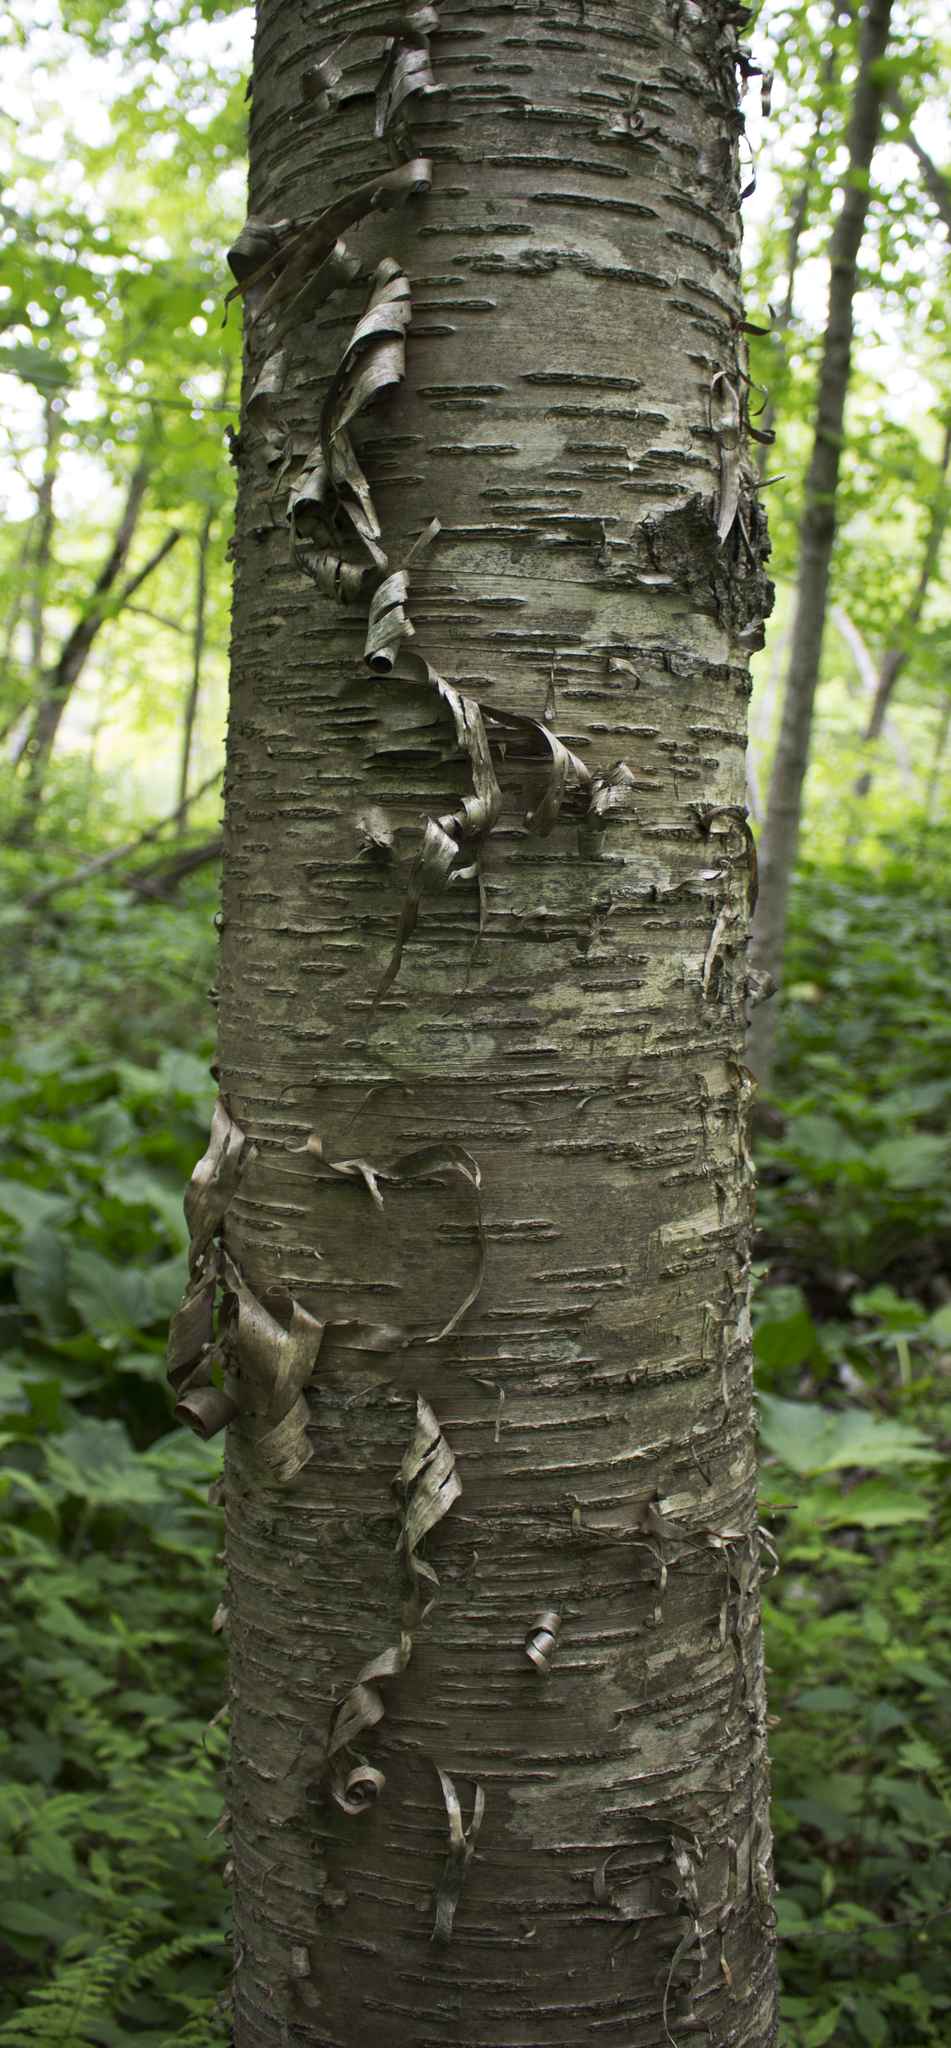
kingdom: Plantae
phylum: Tracheophyta
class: Magnoliopsida
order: Fagales
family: Betulaceae
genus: Betula
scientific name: Betula alleghaniensis
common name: Yellow birch
